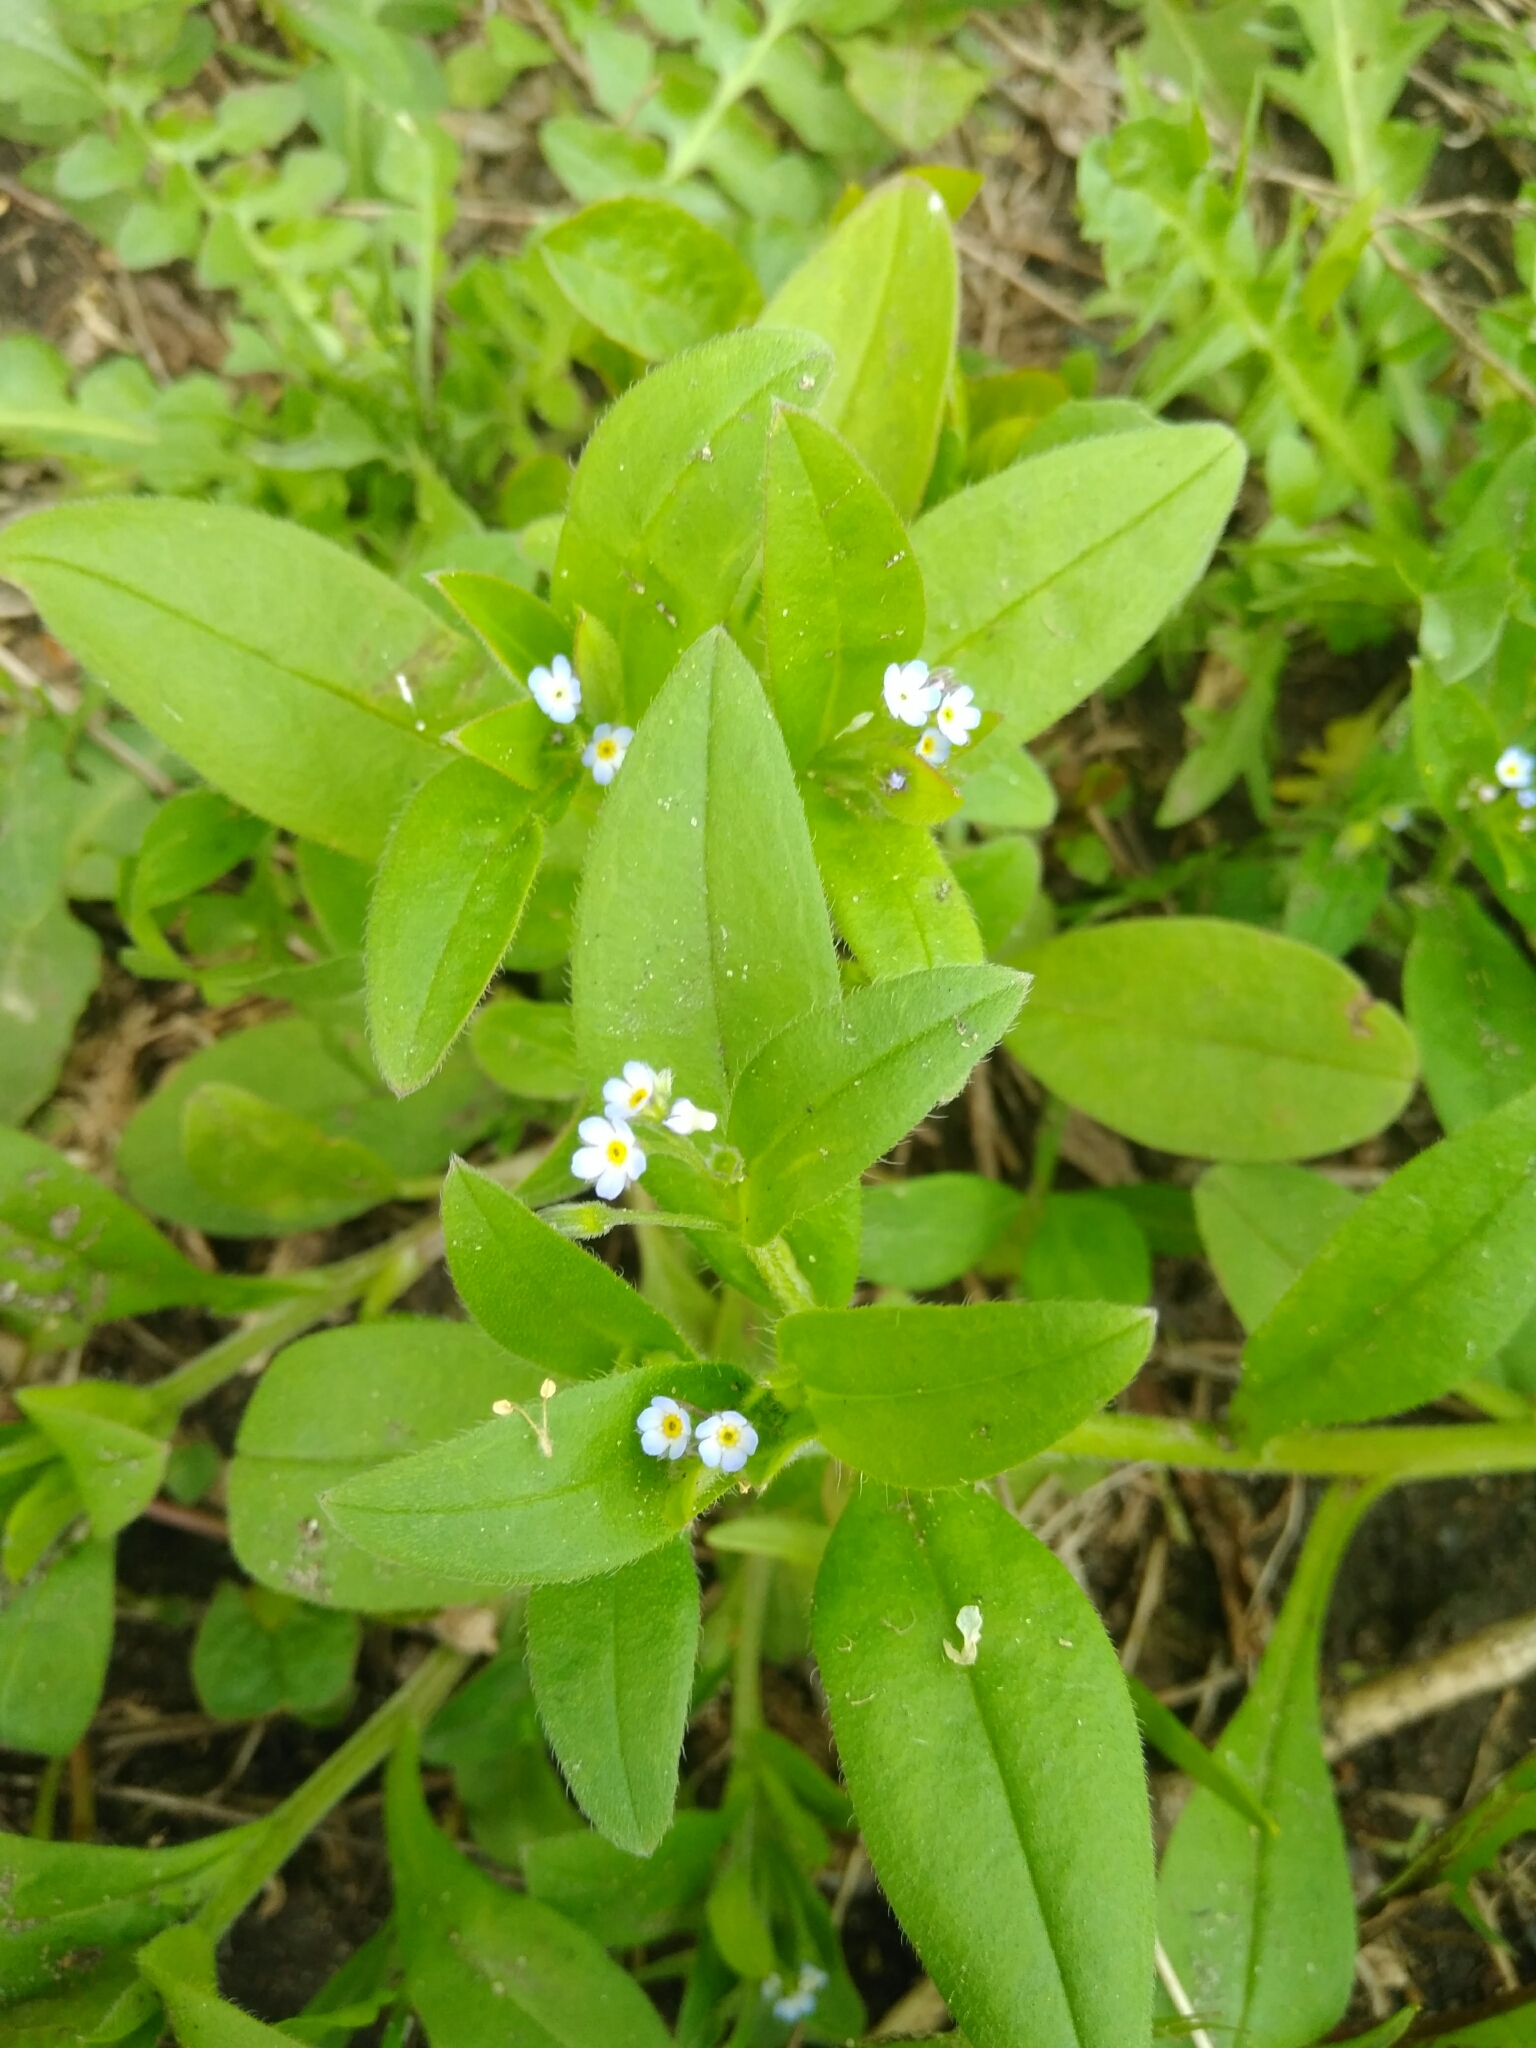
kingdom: Plantae
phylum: Tracheophyta
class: Magnoliopsida
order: Boraginales
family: Boraginaceae
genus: Myosotis
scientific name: Myosotis sparsiflora
